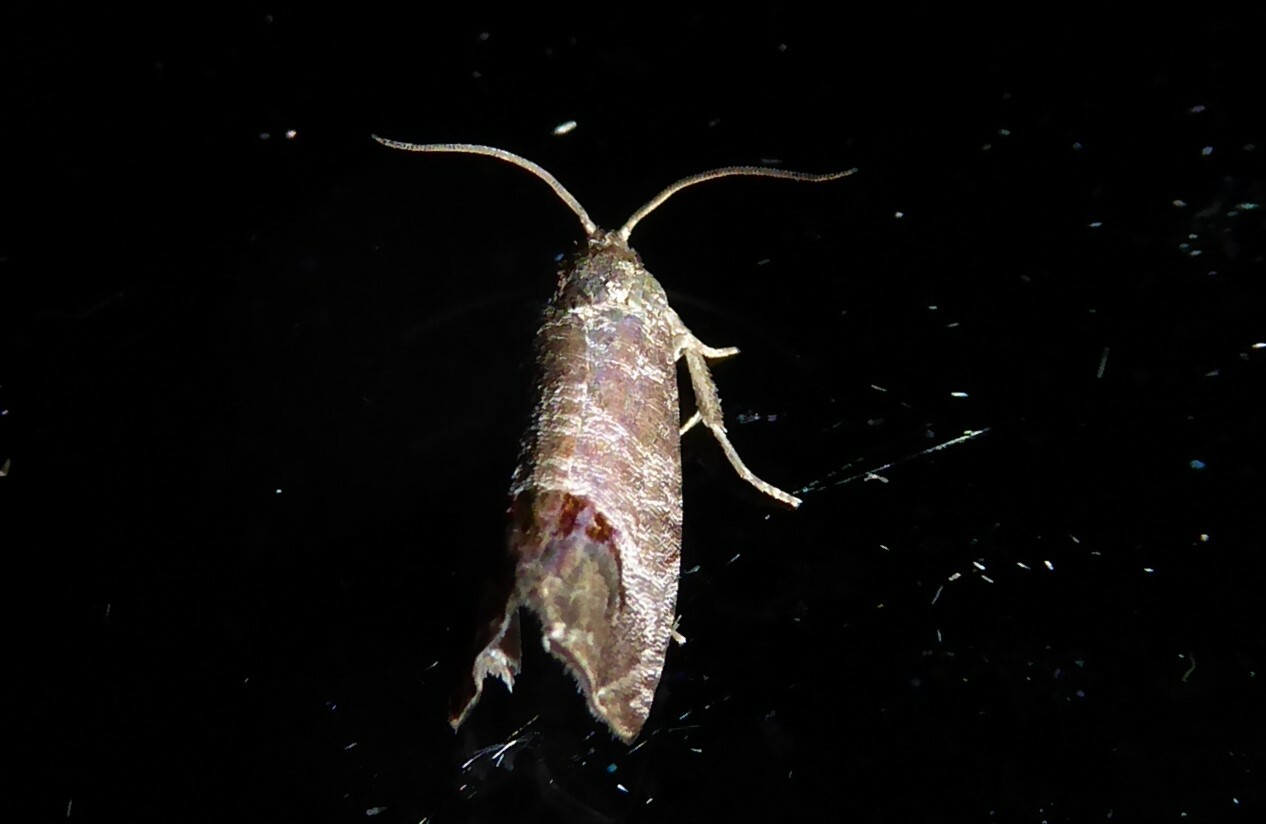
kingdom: Animalia
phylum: Arthropoda
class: Insecta
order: Lepidoptera
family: Tortricidae
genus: Cydia
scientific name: Cydia pomonella
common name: Codling moth
